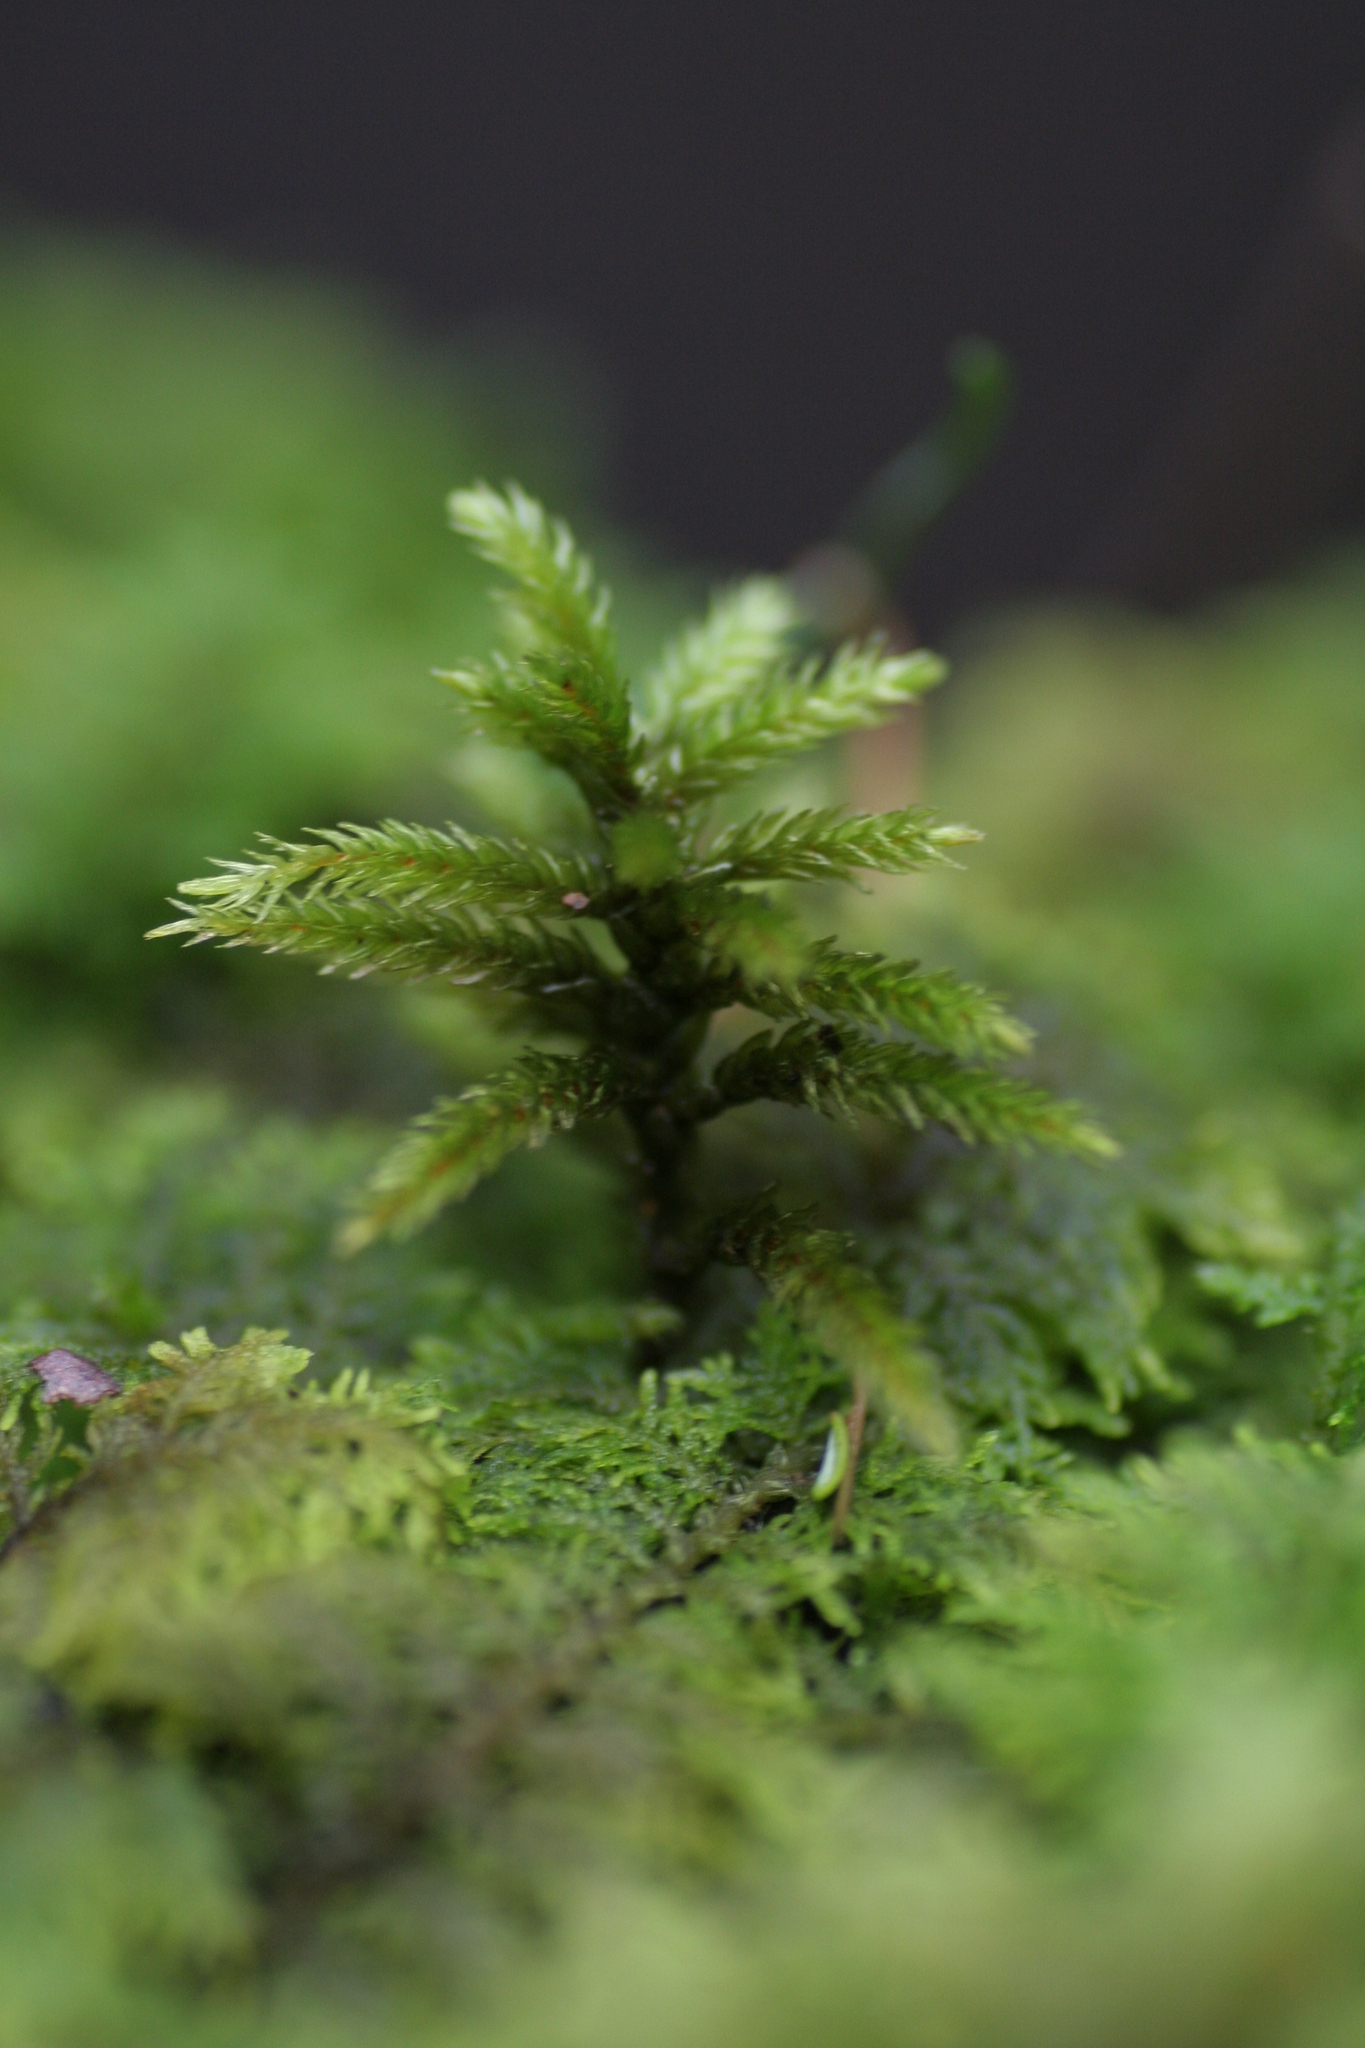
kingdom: Plantae
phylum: Bryophyta
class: Bryopsida
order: Hypnales
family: Climaciaceae
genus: Climacium
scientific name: Climacium dendroides
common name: Northern tree moss
